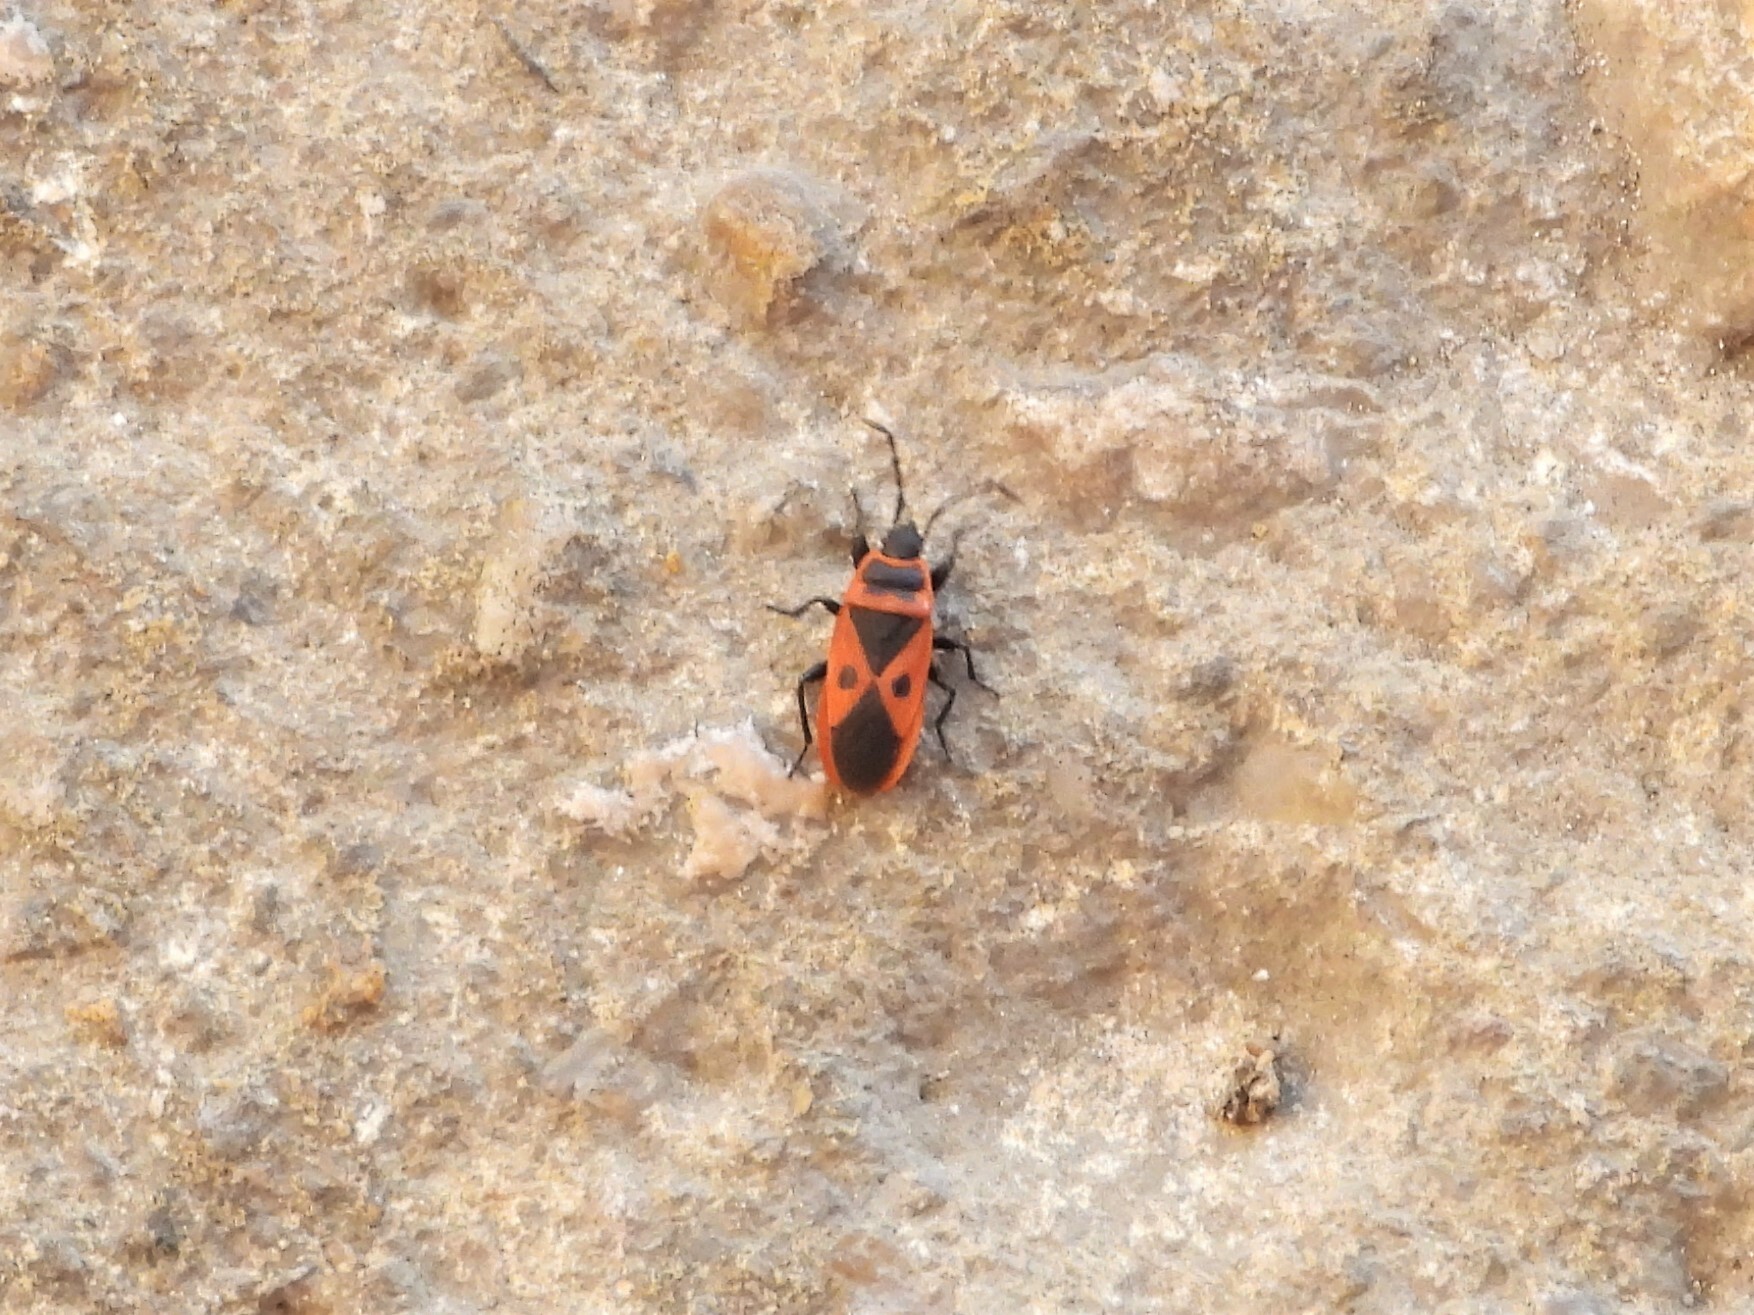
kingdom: Animalia
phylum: Arthropoda
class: Insecta
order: Hemiptera
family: Pyrrhocoridae
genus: Scantius
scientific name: Scantius aegyptius
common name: Red bug
